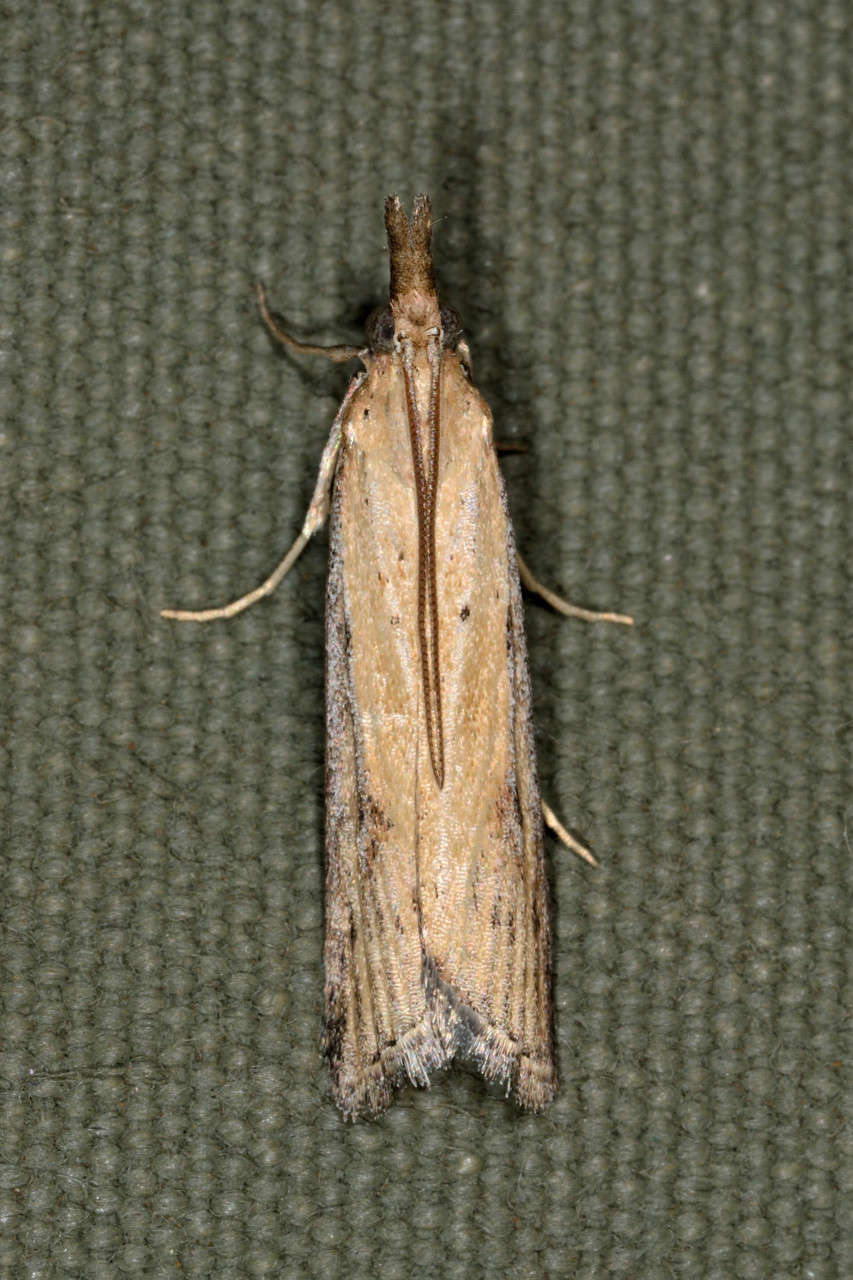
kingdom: Animalia
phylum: Arthropoda
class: Insecta
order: Lepidoptera
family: Pyralidae
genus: Faveria
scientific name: Faveria tritalis
